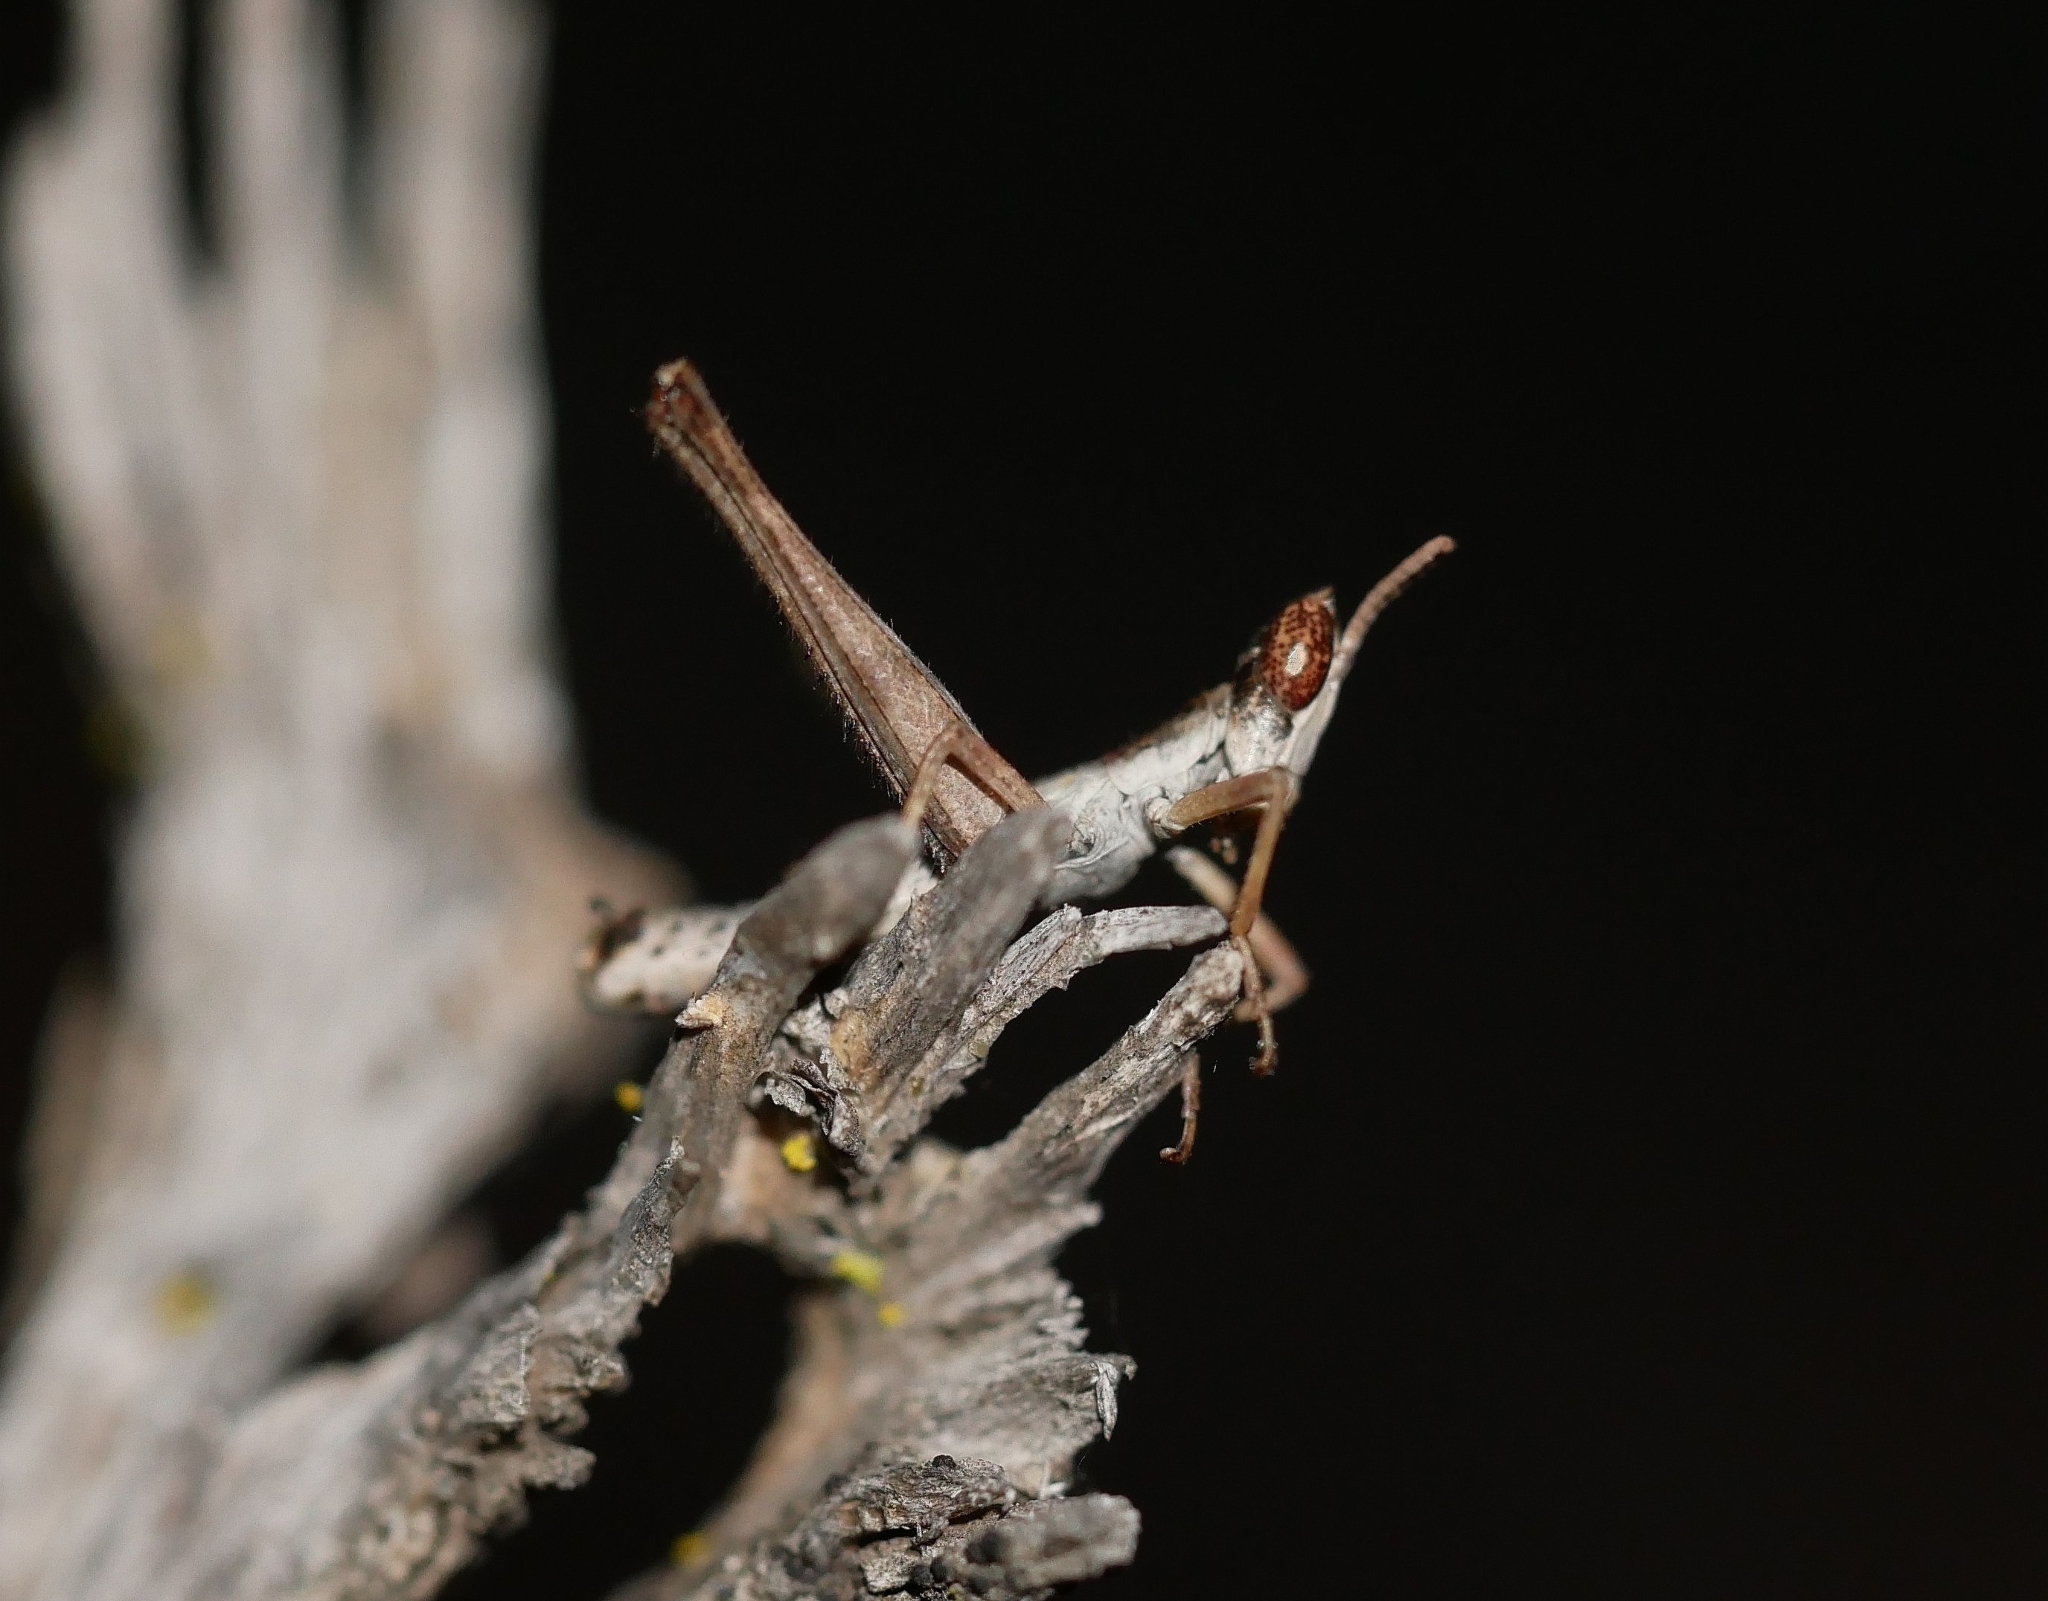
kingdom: Animalia
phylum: Arthropoda
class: Insecta
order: Orthoptera
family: Eumastacidae
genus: Morsea
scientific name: Morsea californica
